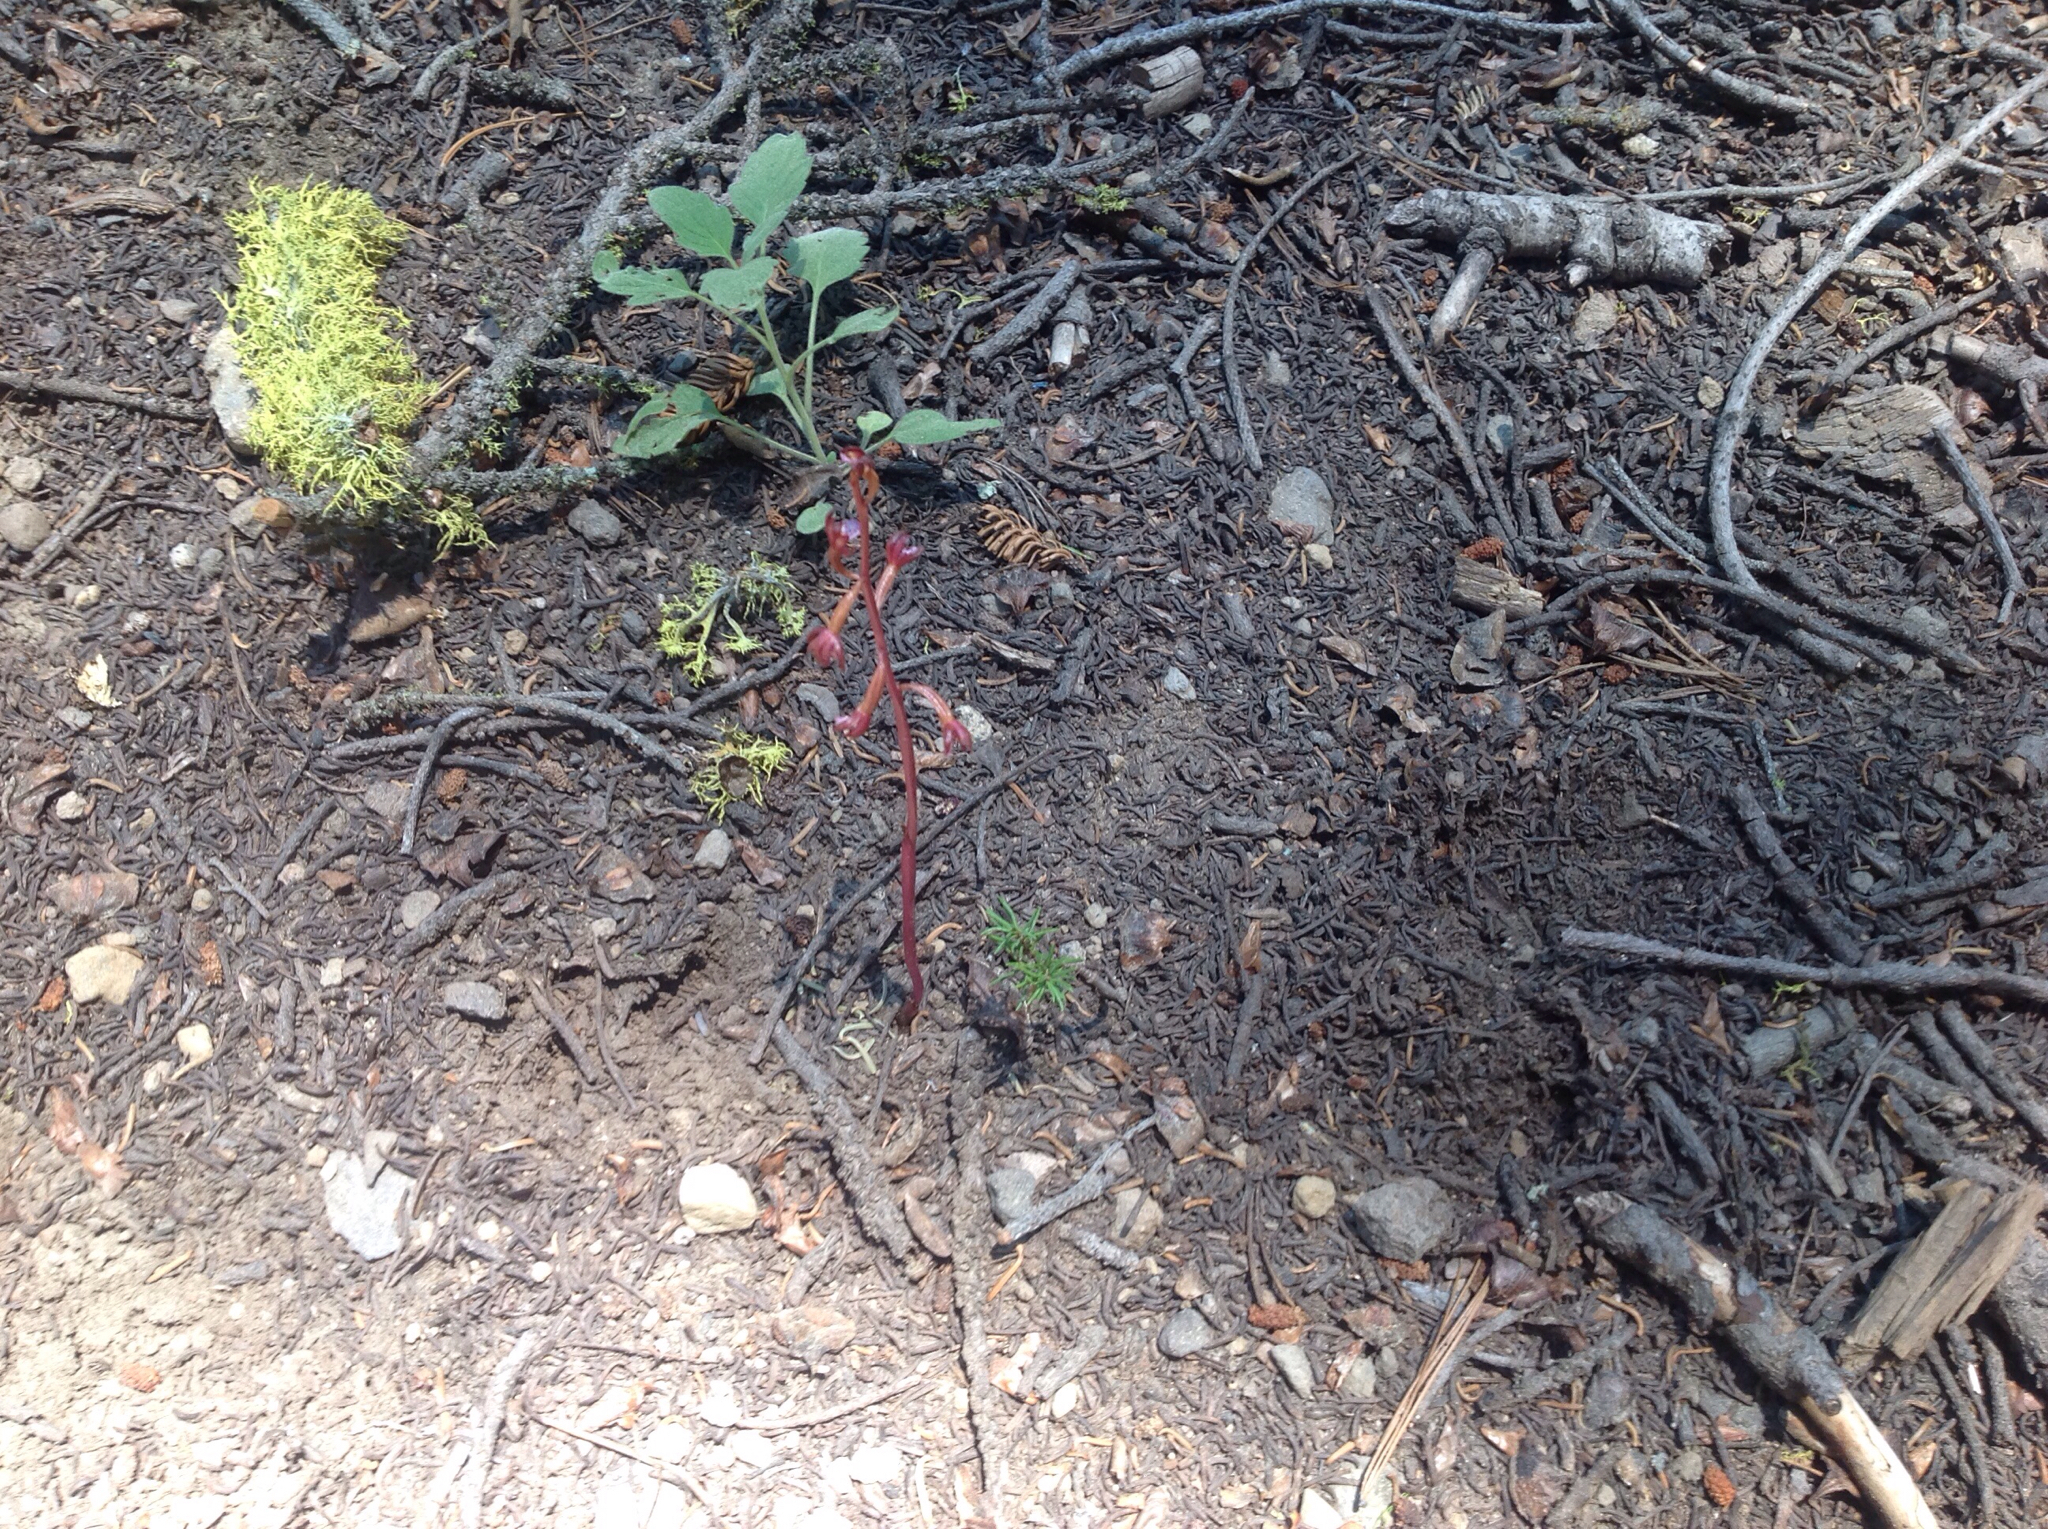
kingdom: Plantae
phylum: Tracheophyta
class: Liliopsida
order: Asparagales
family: Orchidaceae
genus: Corallorhiza
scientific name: Corallorhiza maculata
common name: Spotted coralroot
